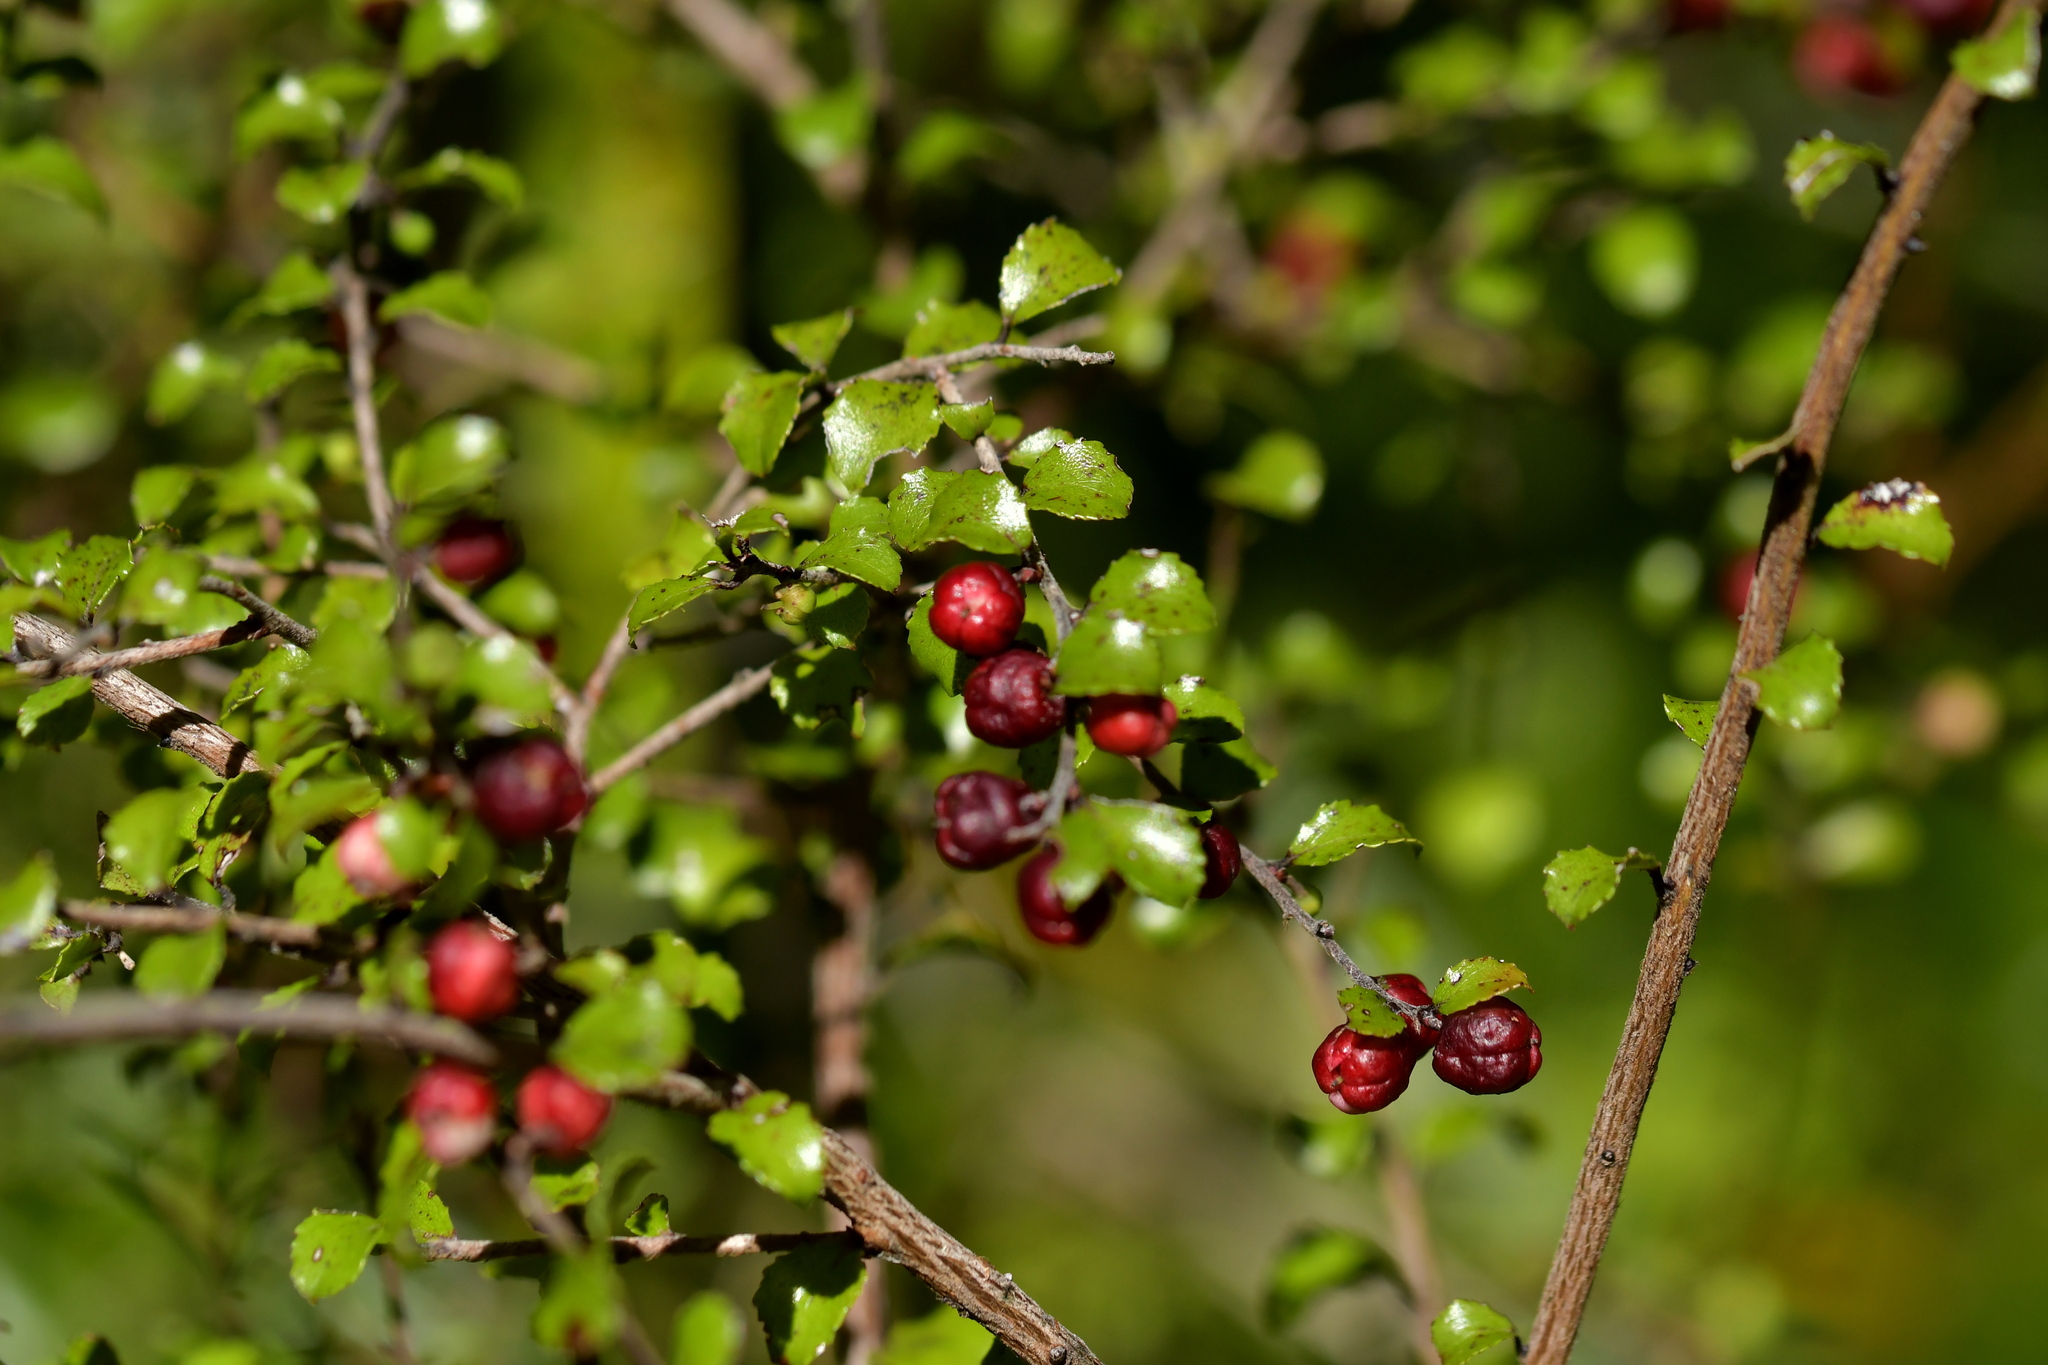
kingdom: Plantae
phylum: Tracheophyta
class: Magnoliopsida
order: Ericales
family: Ericaceae
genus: Gaultheria
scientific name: Gaultheria antipoda
